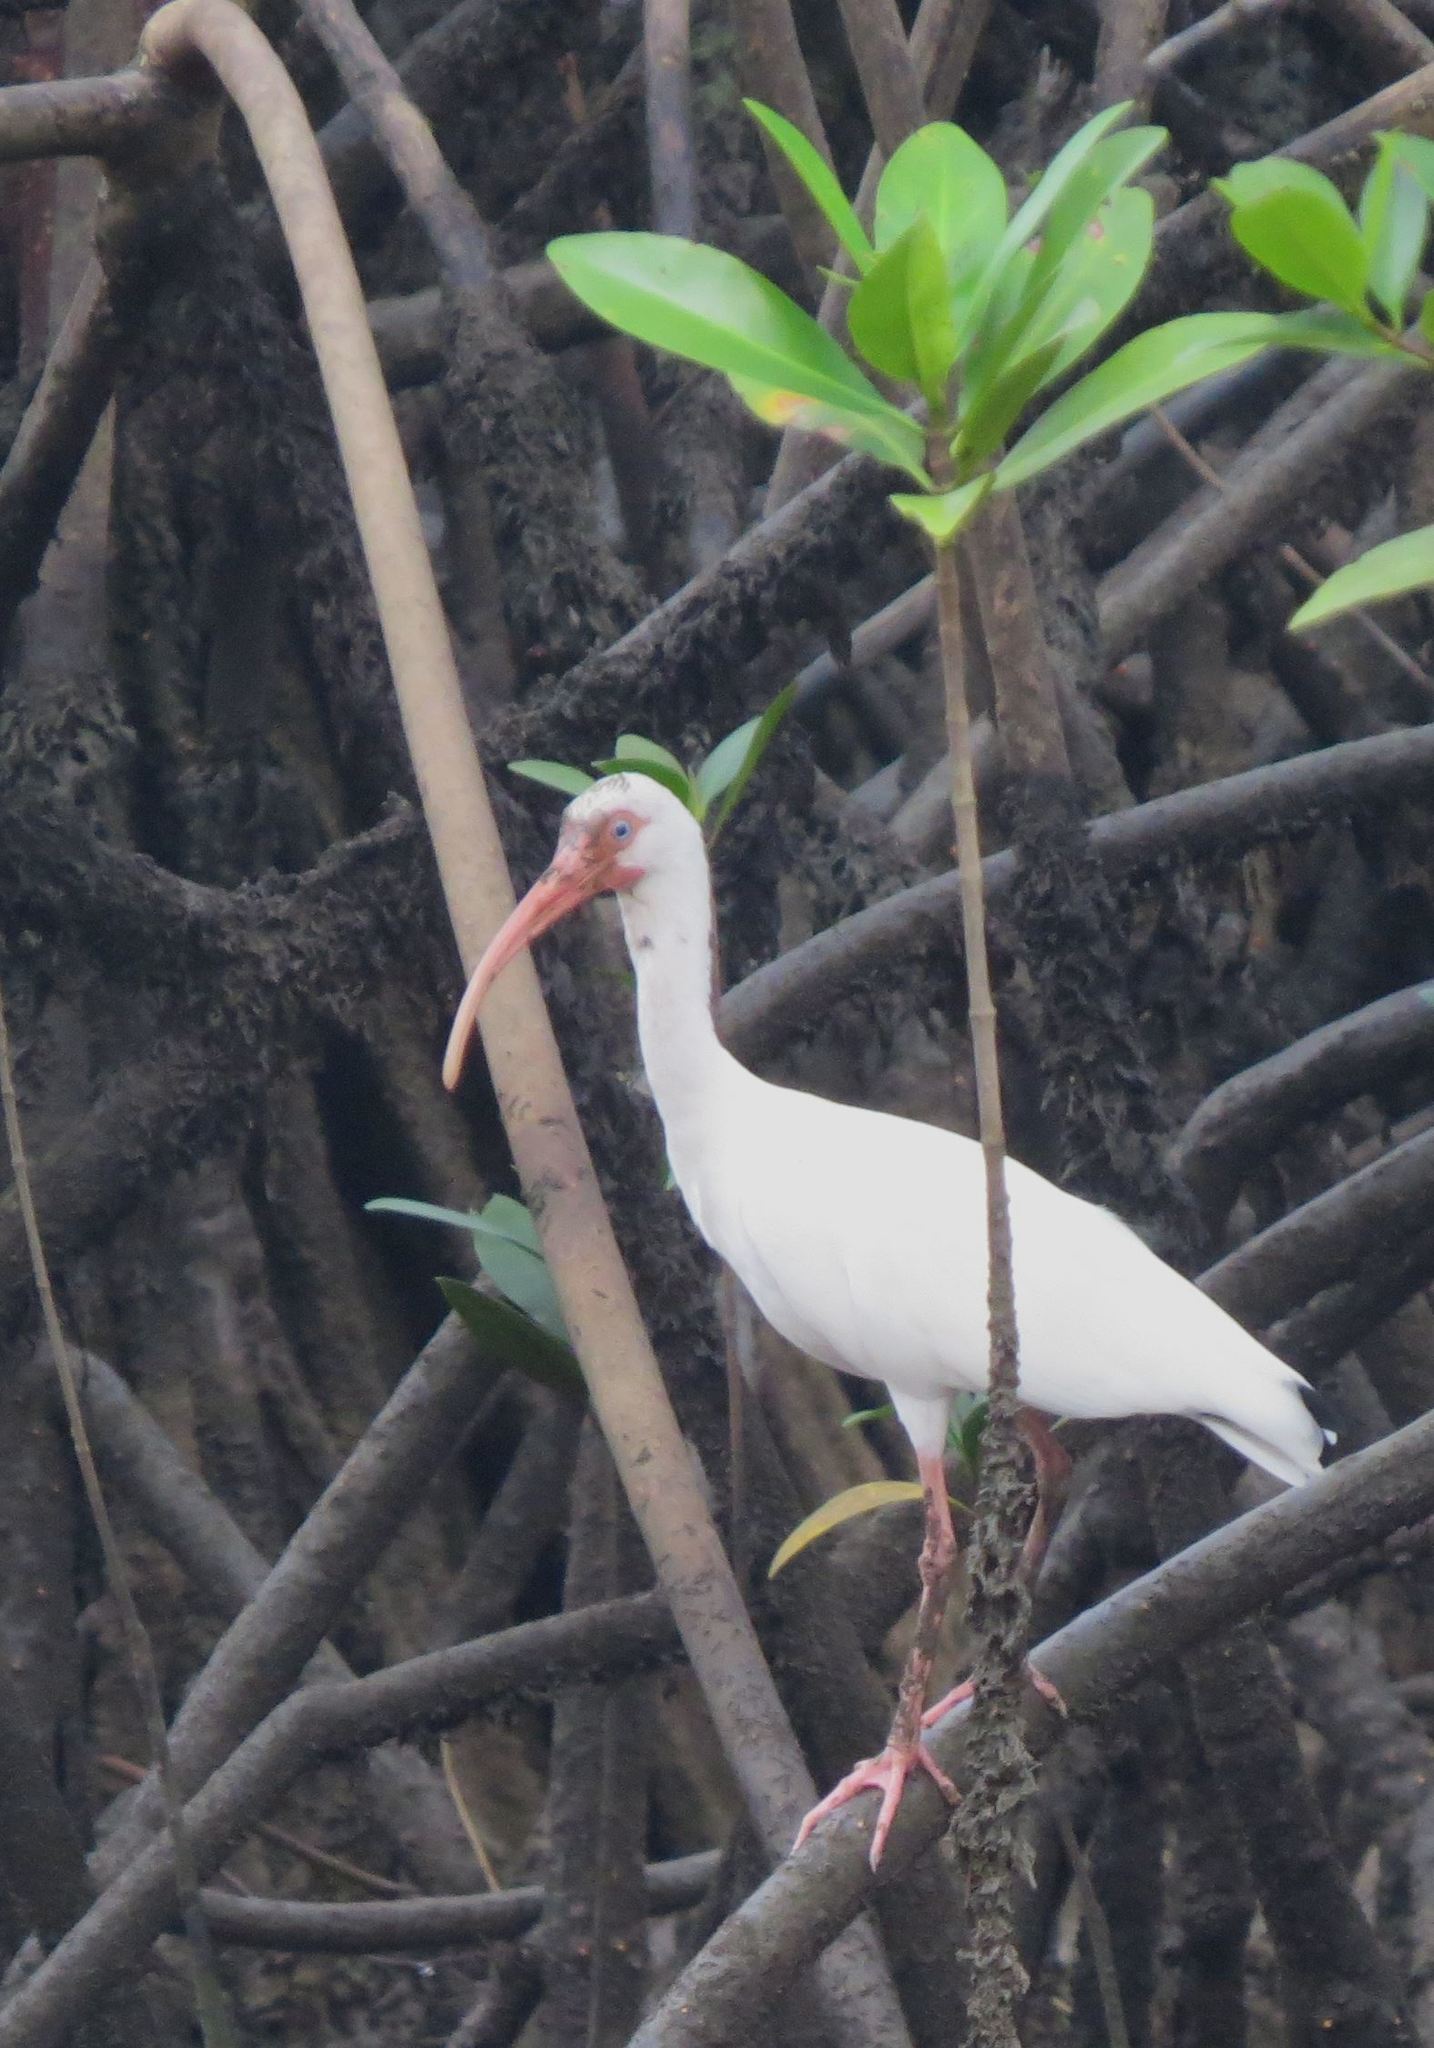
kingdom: Animalia
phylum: Chordata
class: Aves
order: Pelecaniformes
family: Threskiornithidae
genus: Eudocimus
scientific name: Eudocimus albus
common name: White ibis
